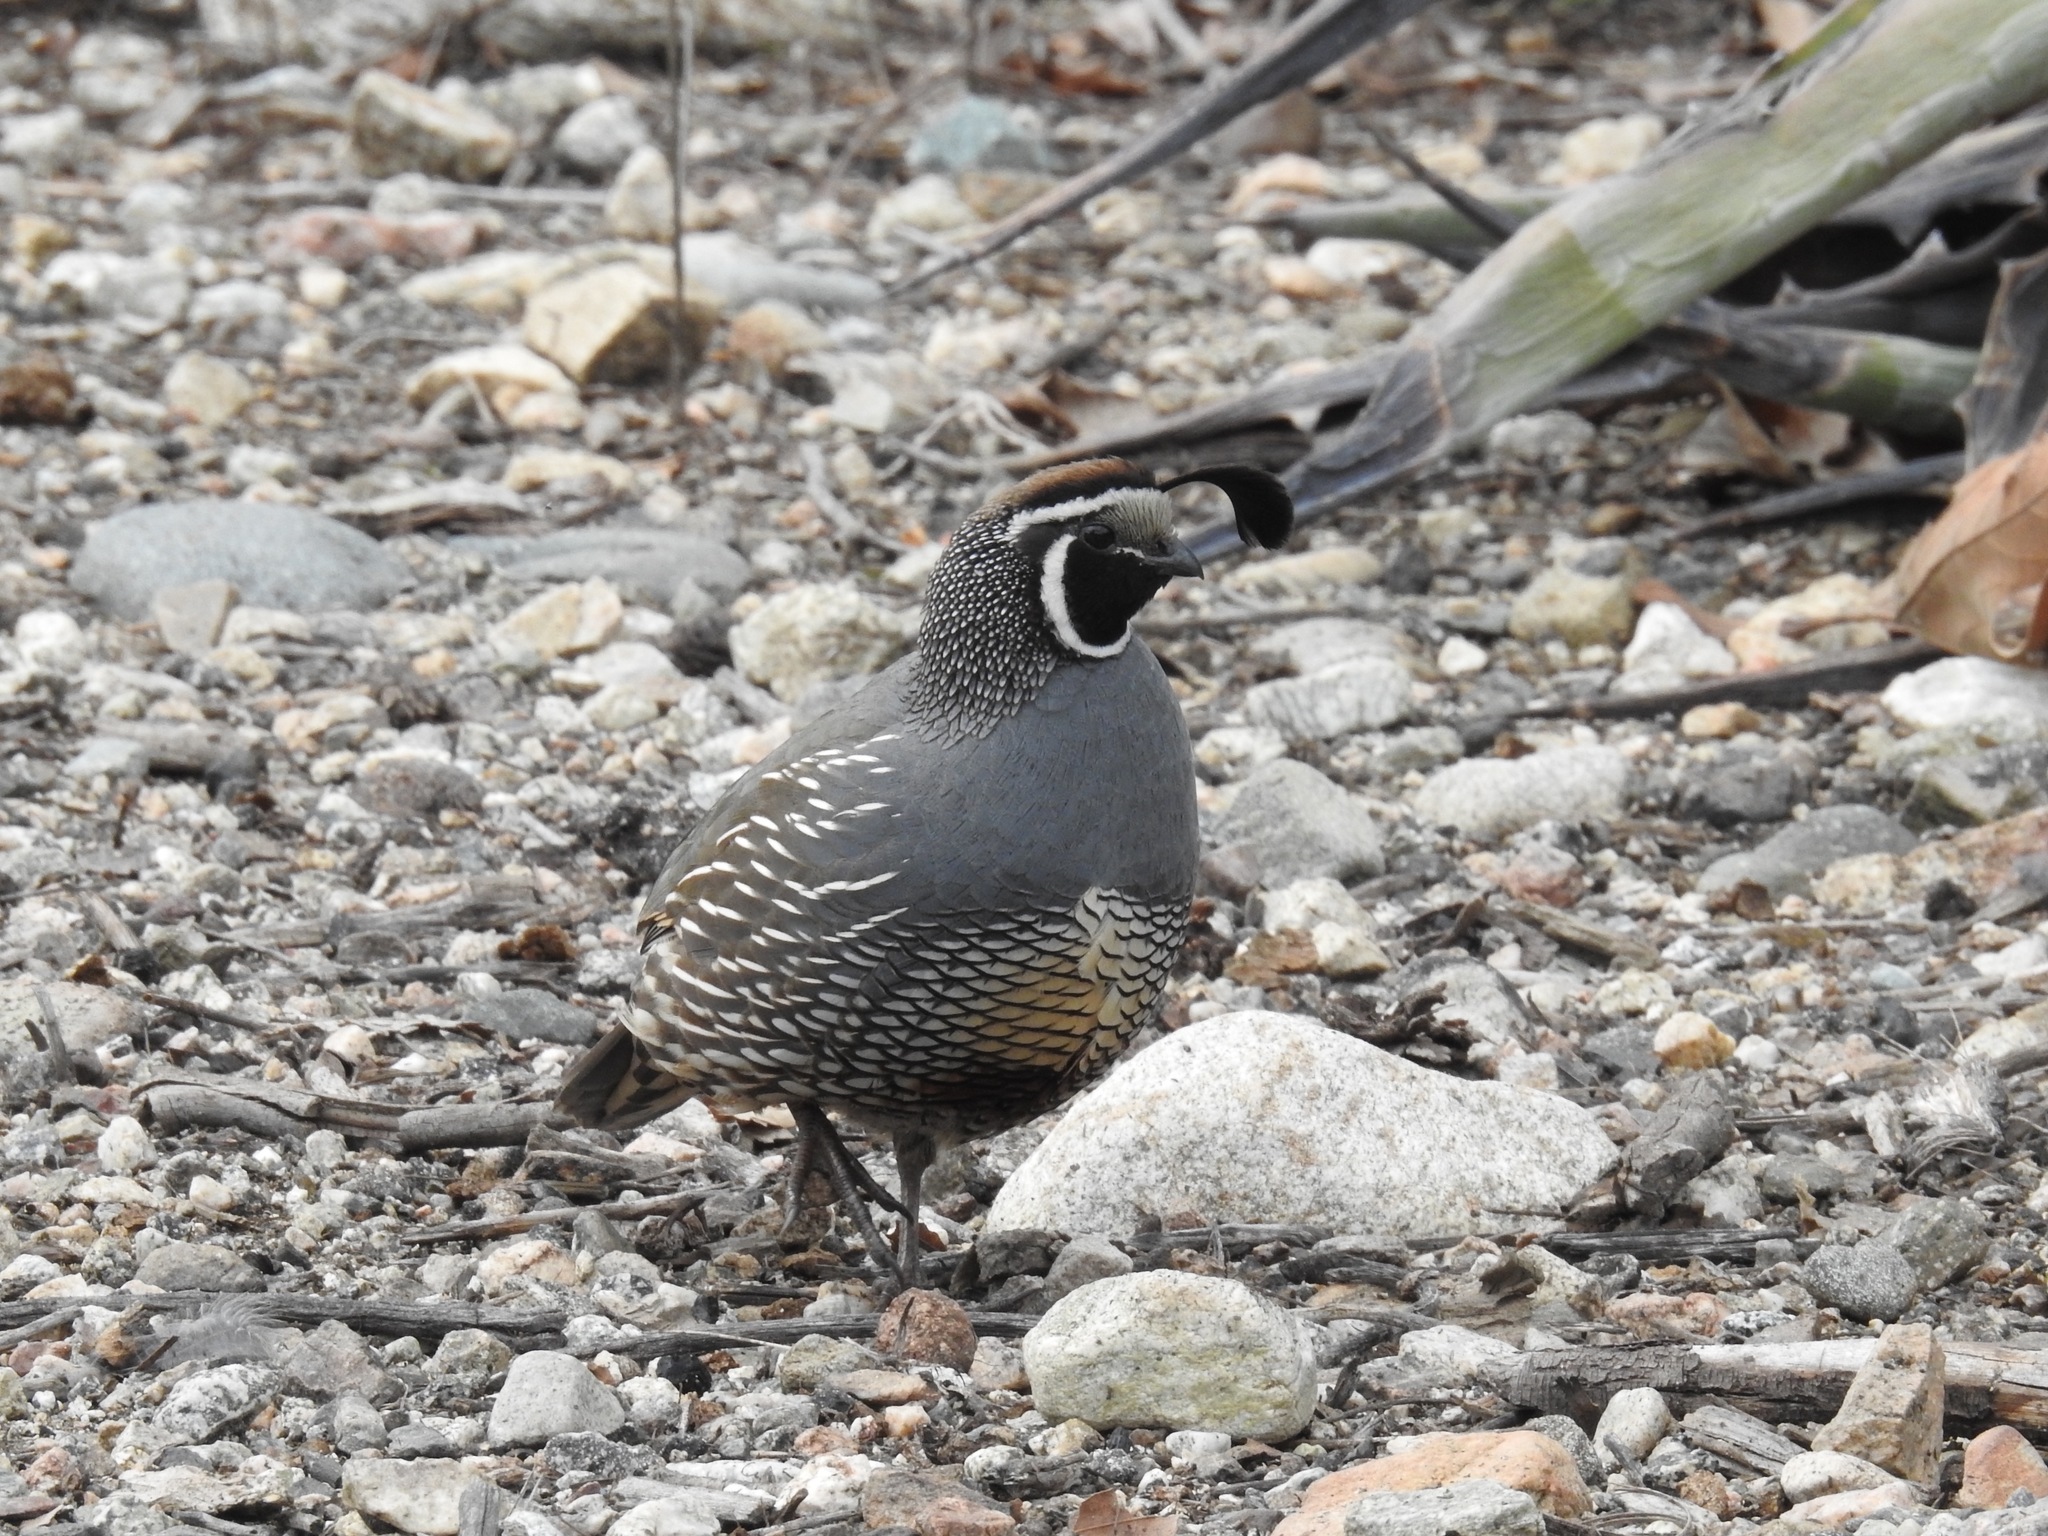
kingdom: Animalia
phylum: Chordata
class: Aves
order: Galliformes
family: Odontophoridae
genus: Callipepla
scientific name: Callipepla californica
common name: California quail
